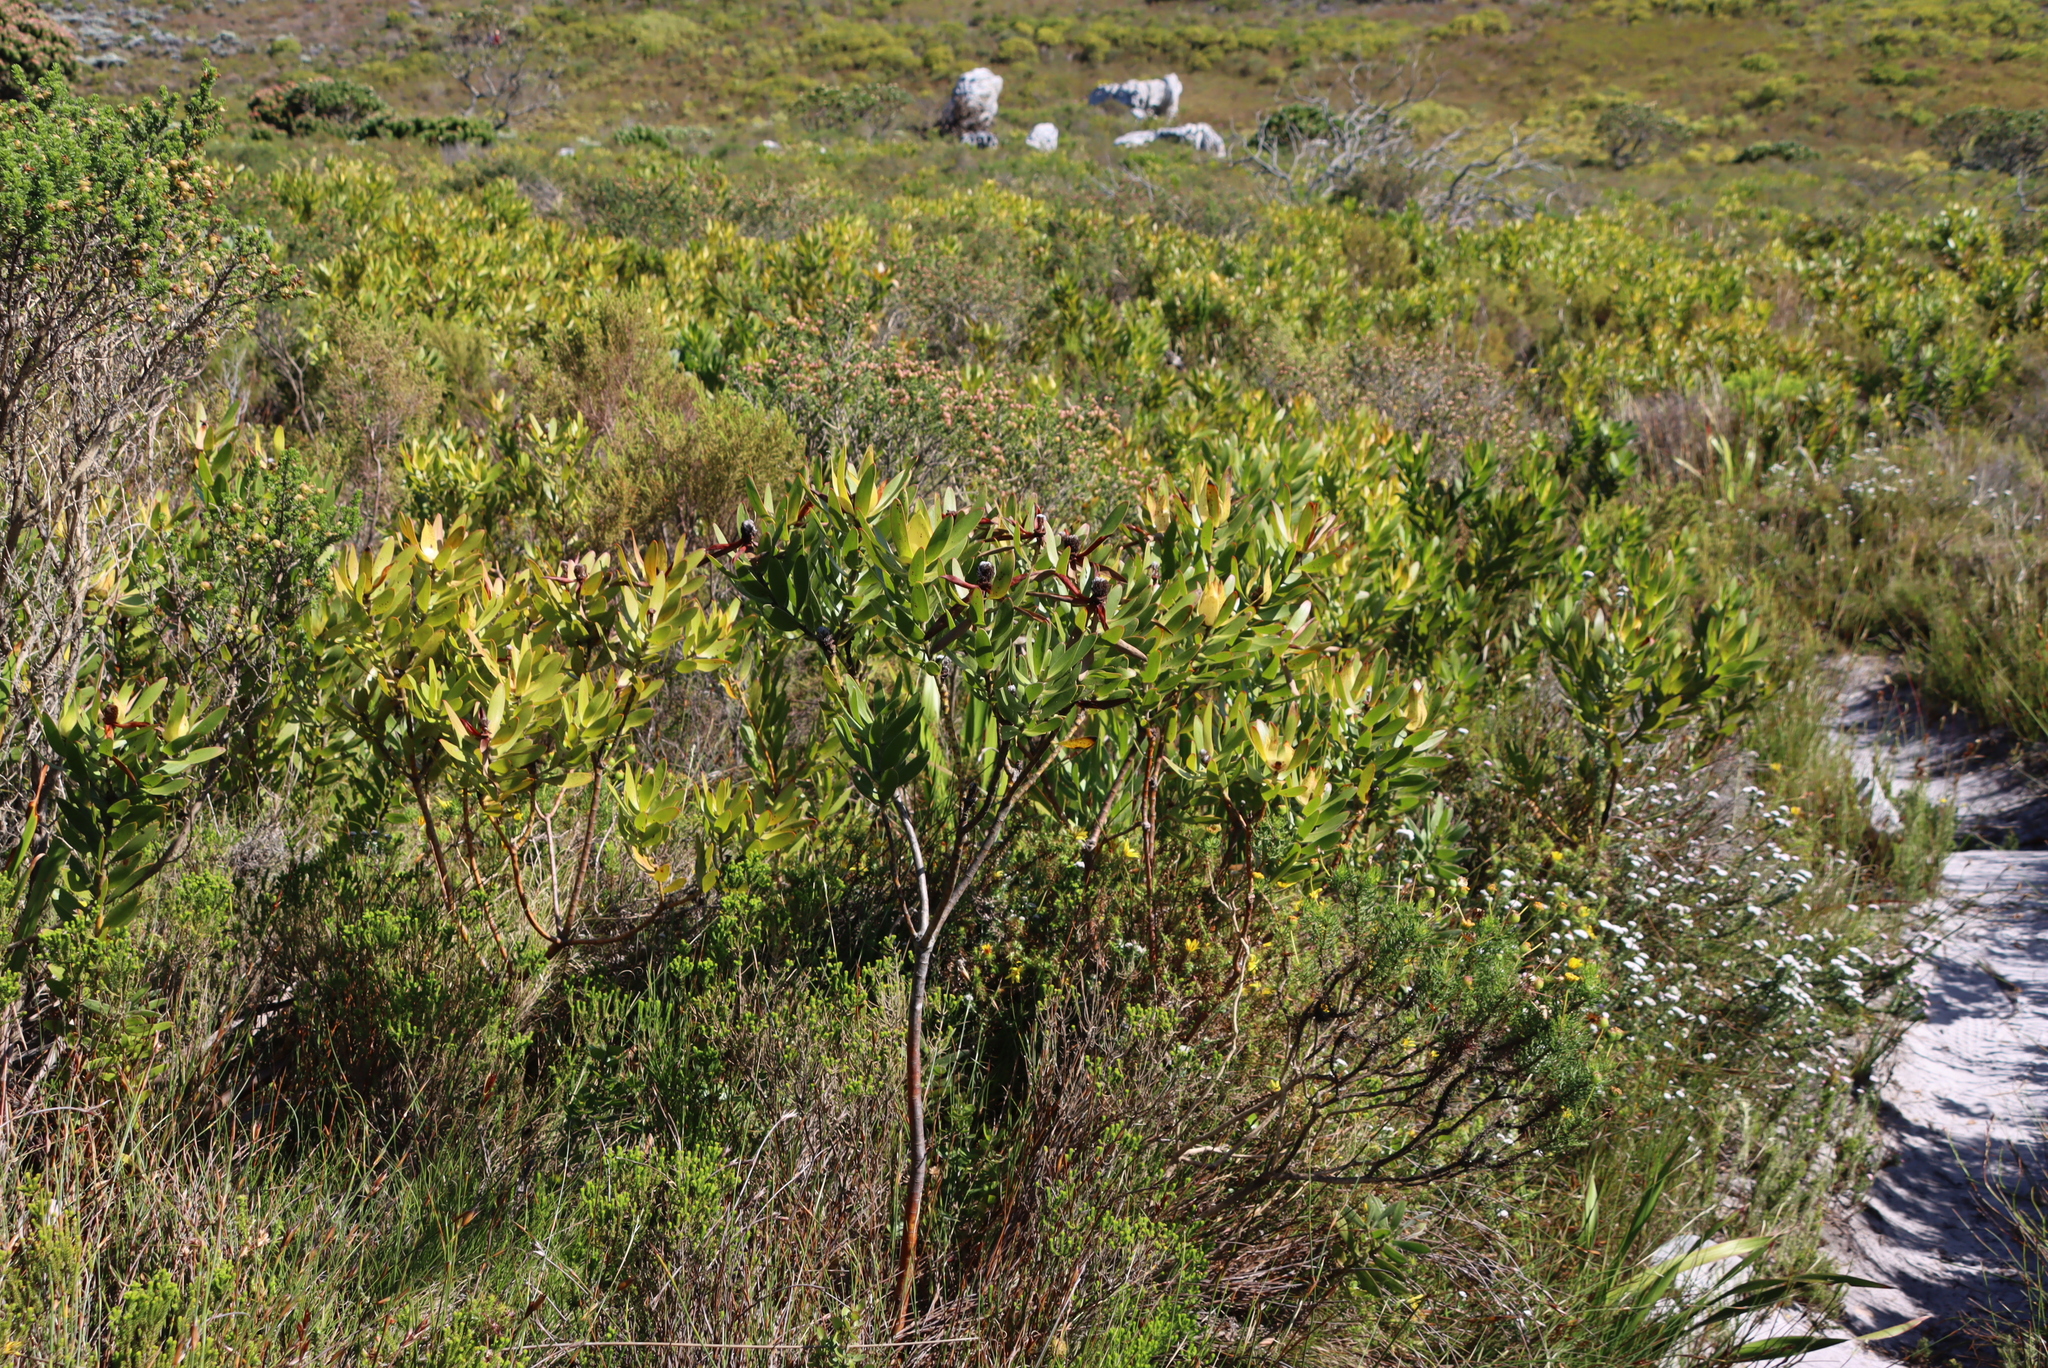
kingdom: Plantae
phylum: Tracheophyta
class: Magnoliopsida
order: Proteales
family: Proteaceae
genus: Leucadendron
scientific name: Leucadendron laureolum
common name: Golden sunshinebush
